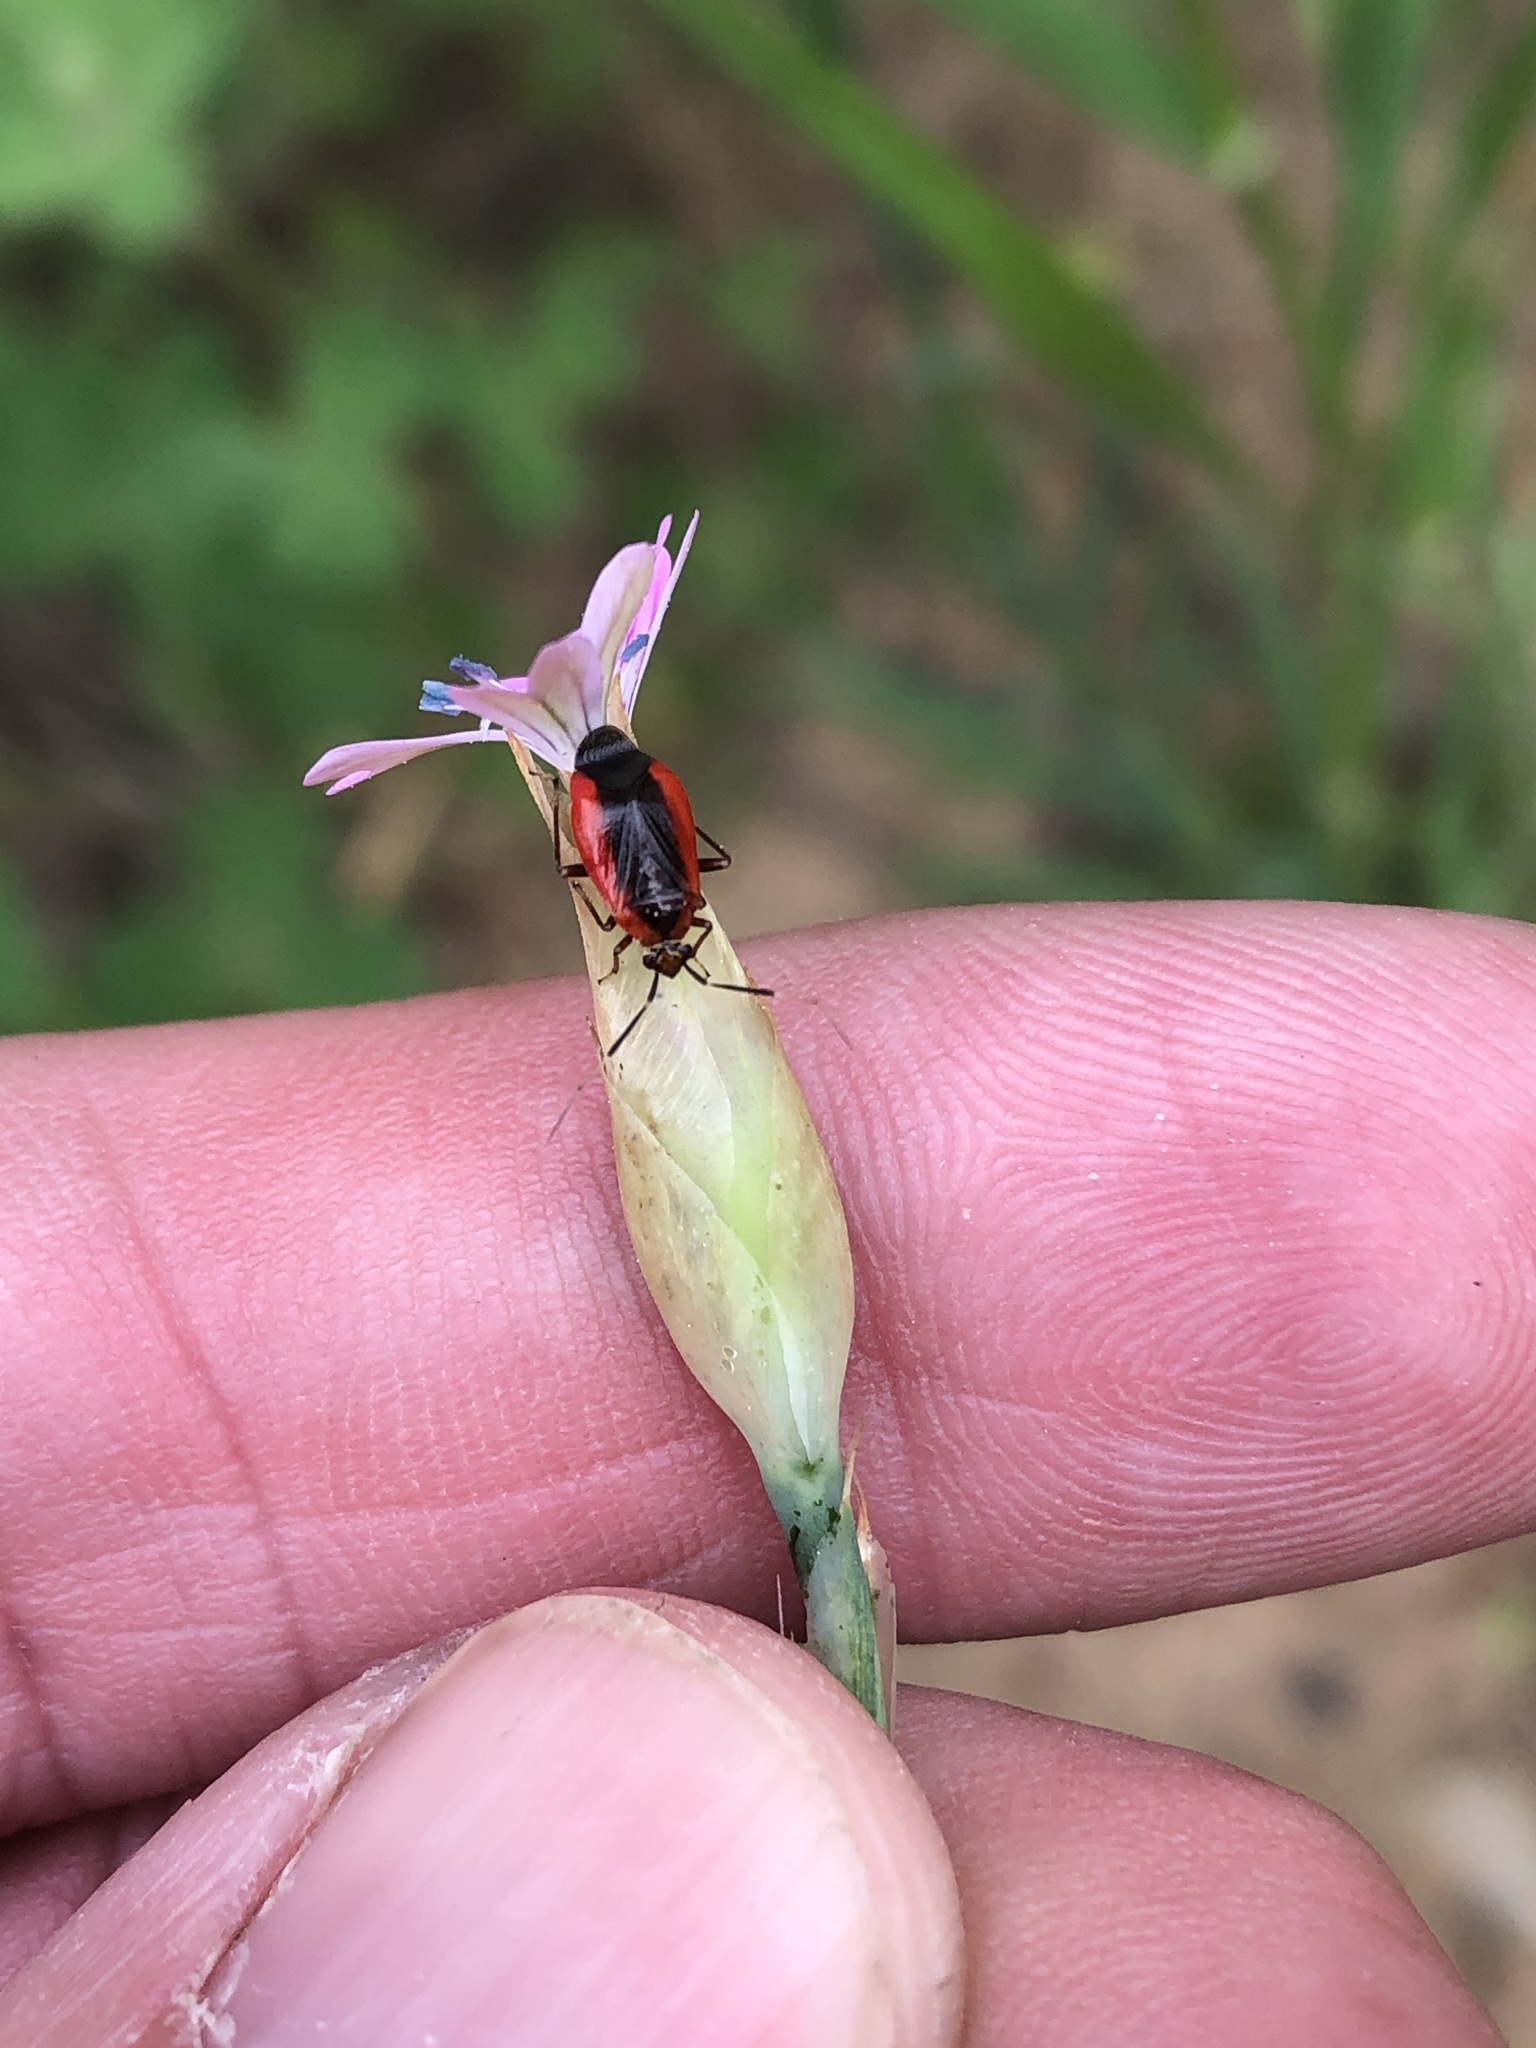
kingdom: Animalia
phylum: Arthropoda
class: Insecta
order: Hemiptera
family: Miridae
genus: Metriorrhynchomiris
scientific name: Metriorrhynchomiris dislocatus
